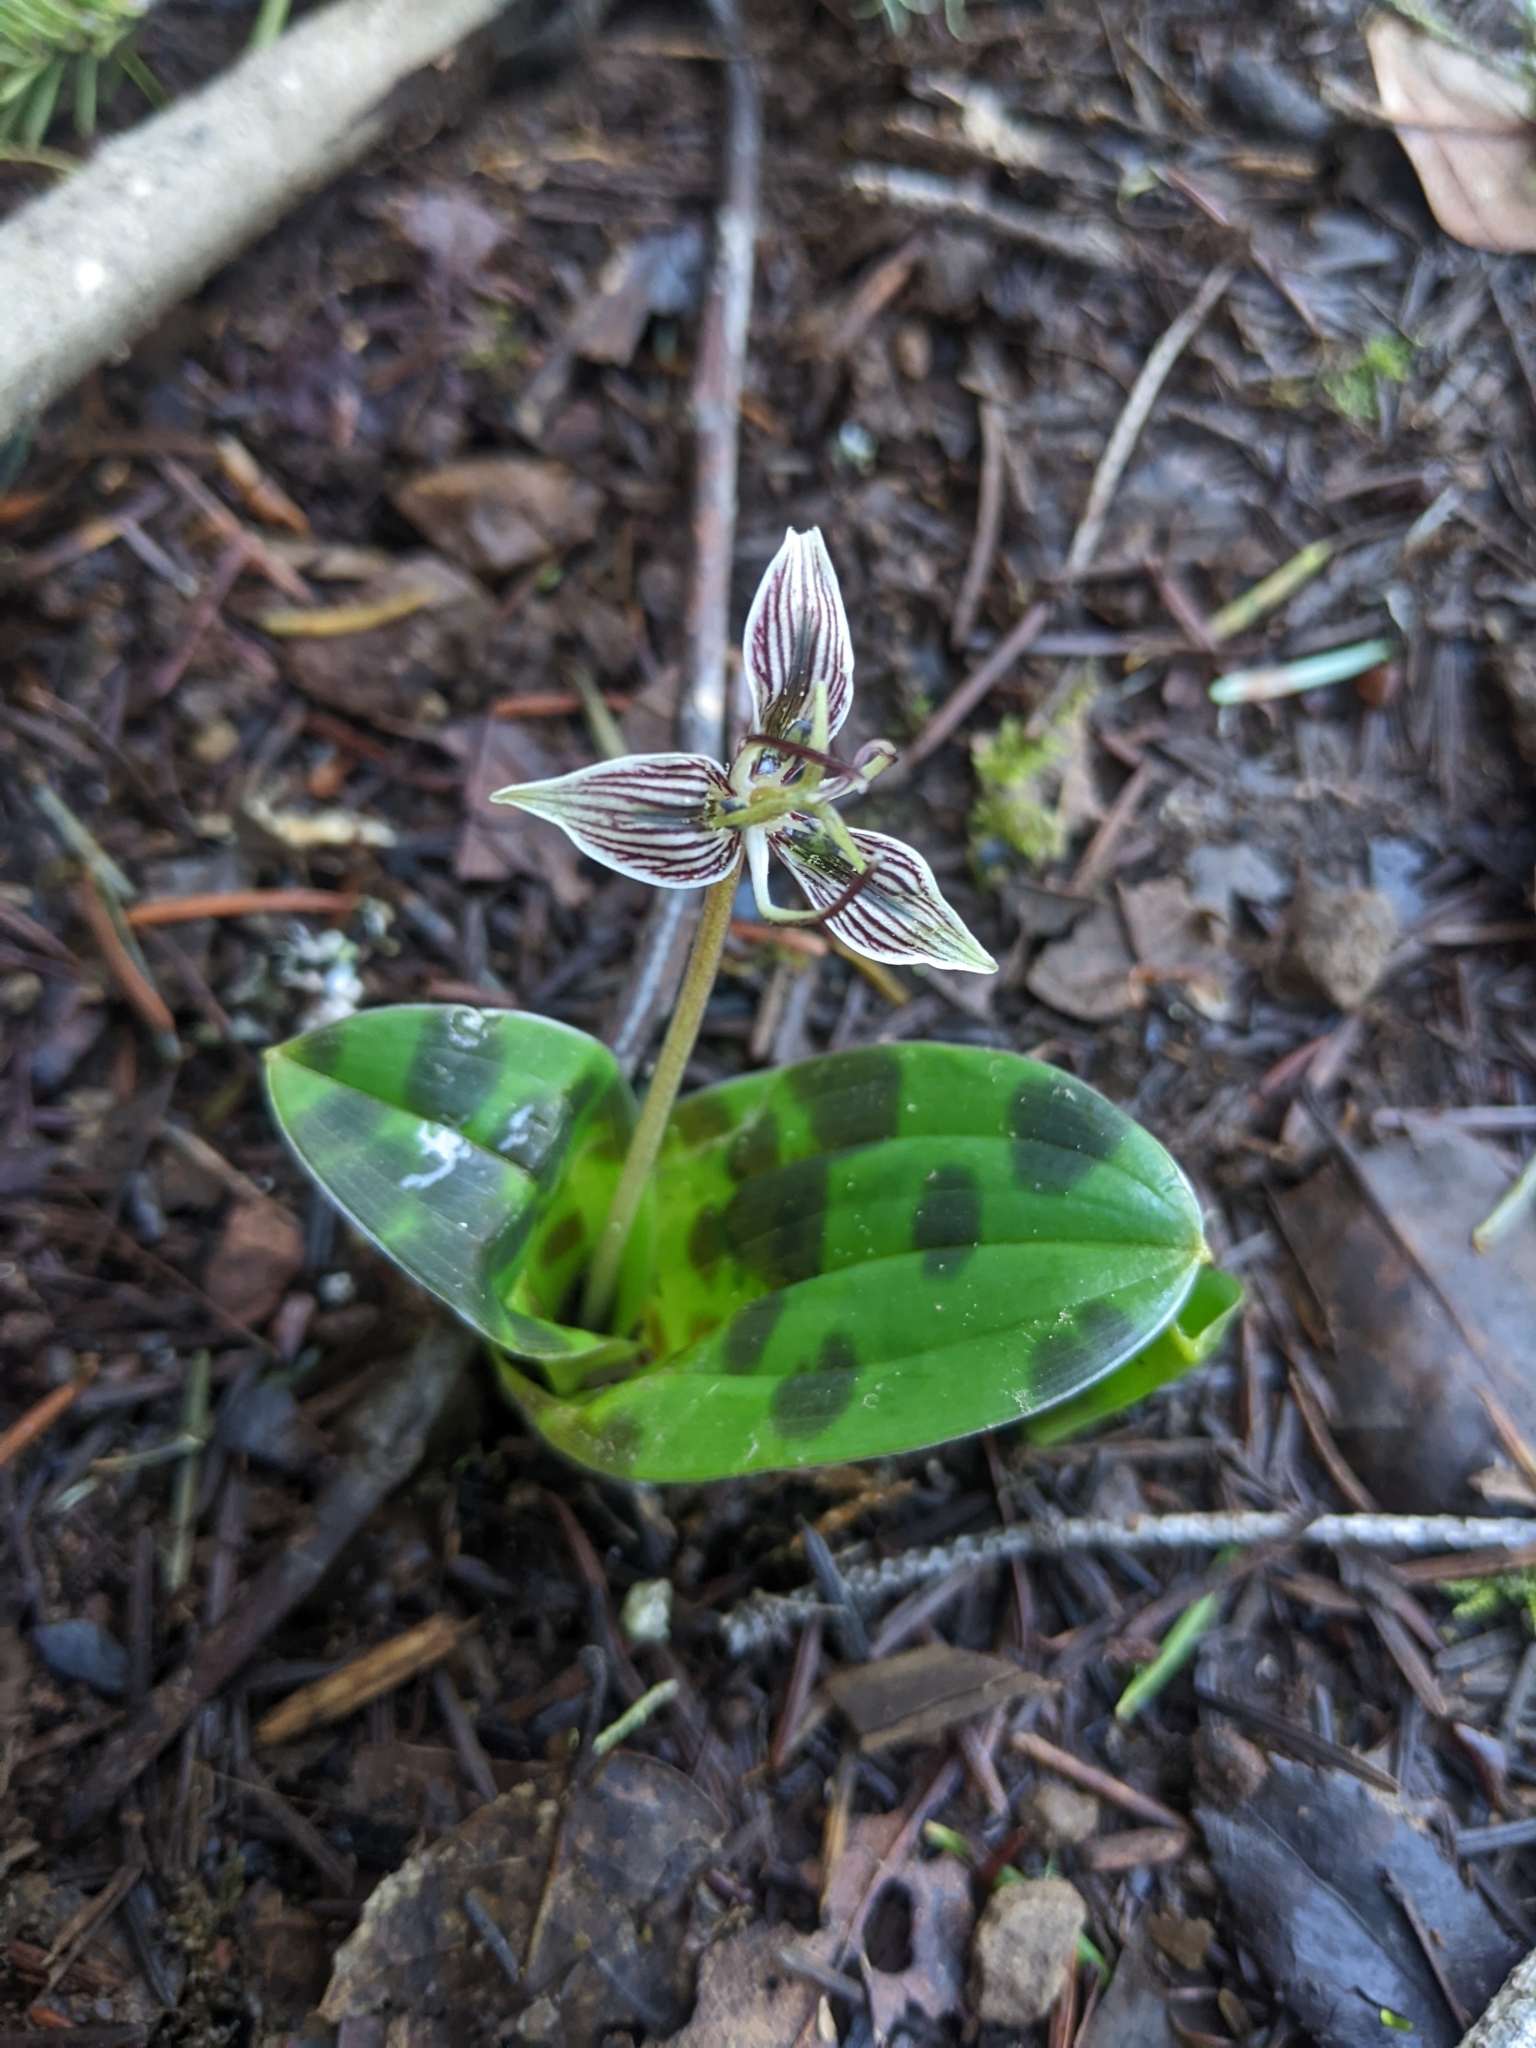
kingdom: Plantae
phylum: Tracheophyta
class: Liliopsida
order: Liliales
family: Liliaceae
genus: Scoliopus
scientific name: Scoliopus bigelovii
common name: Foetid adder's-tongue
